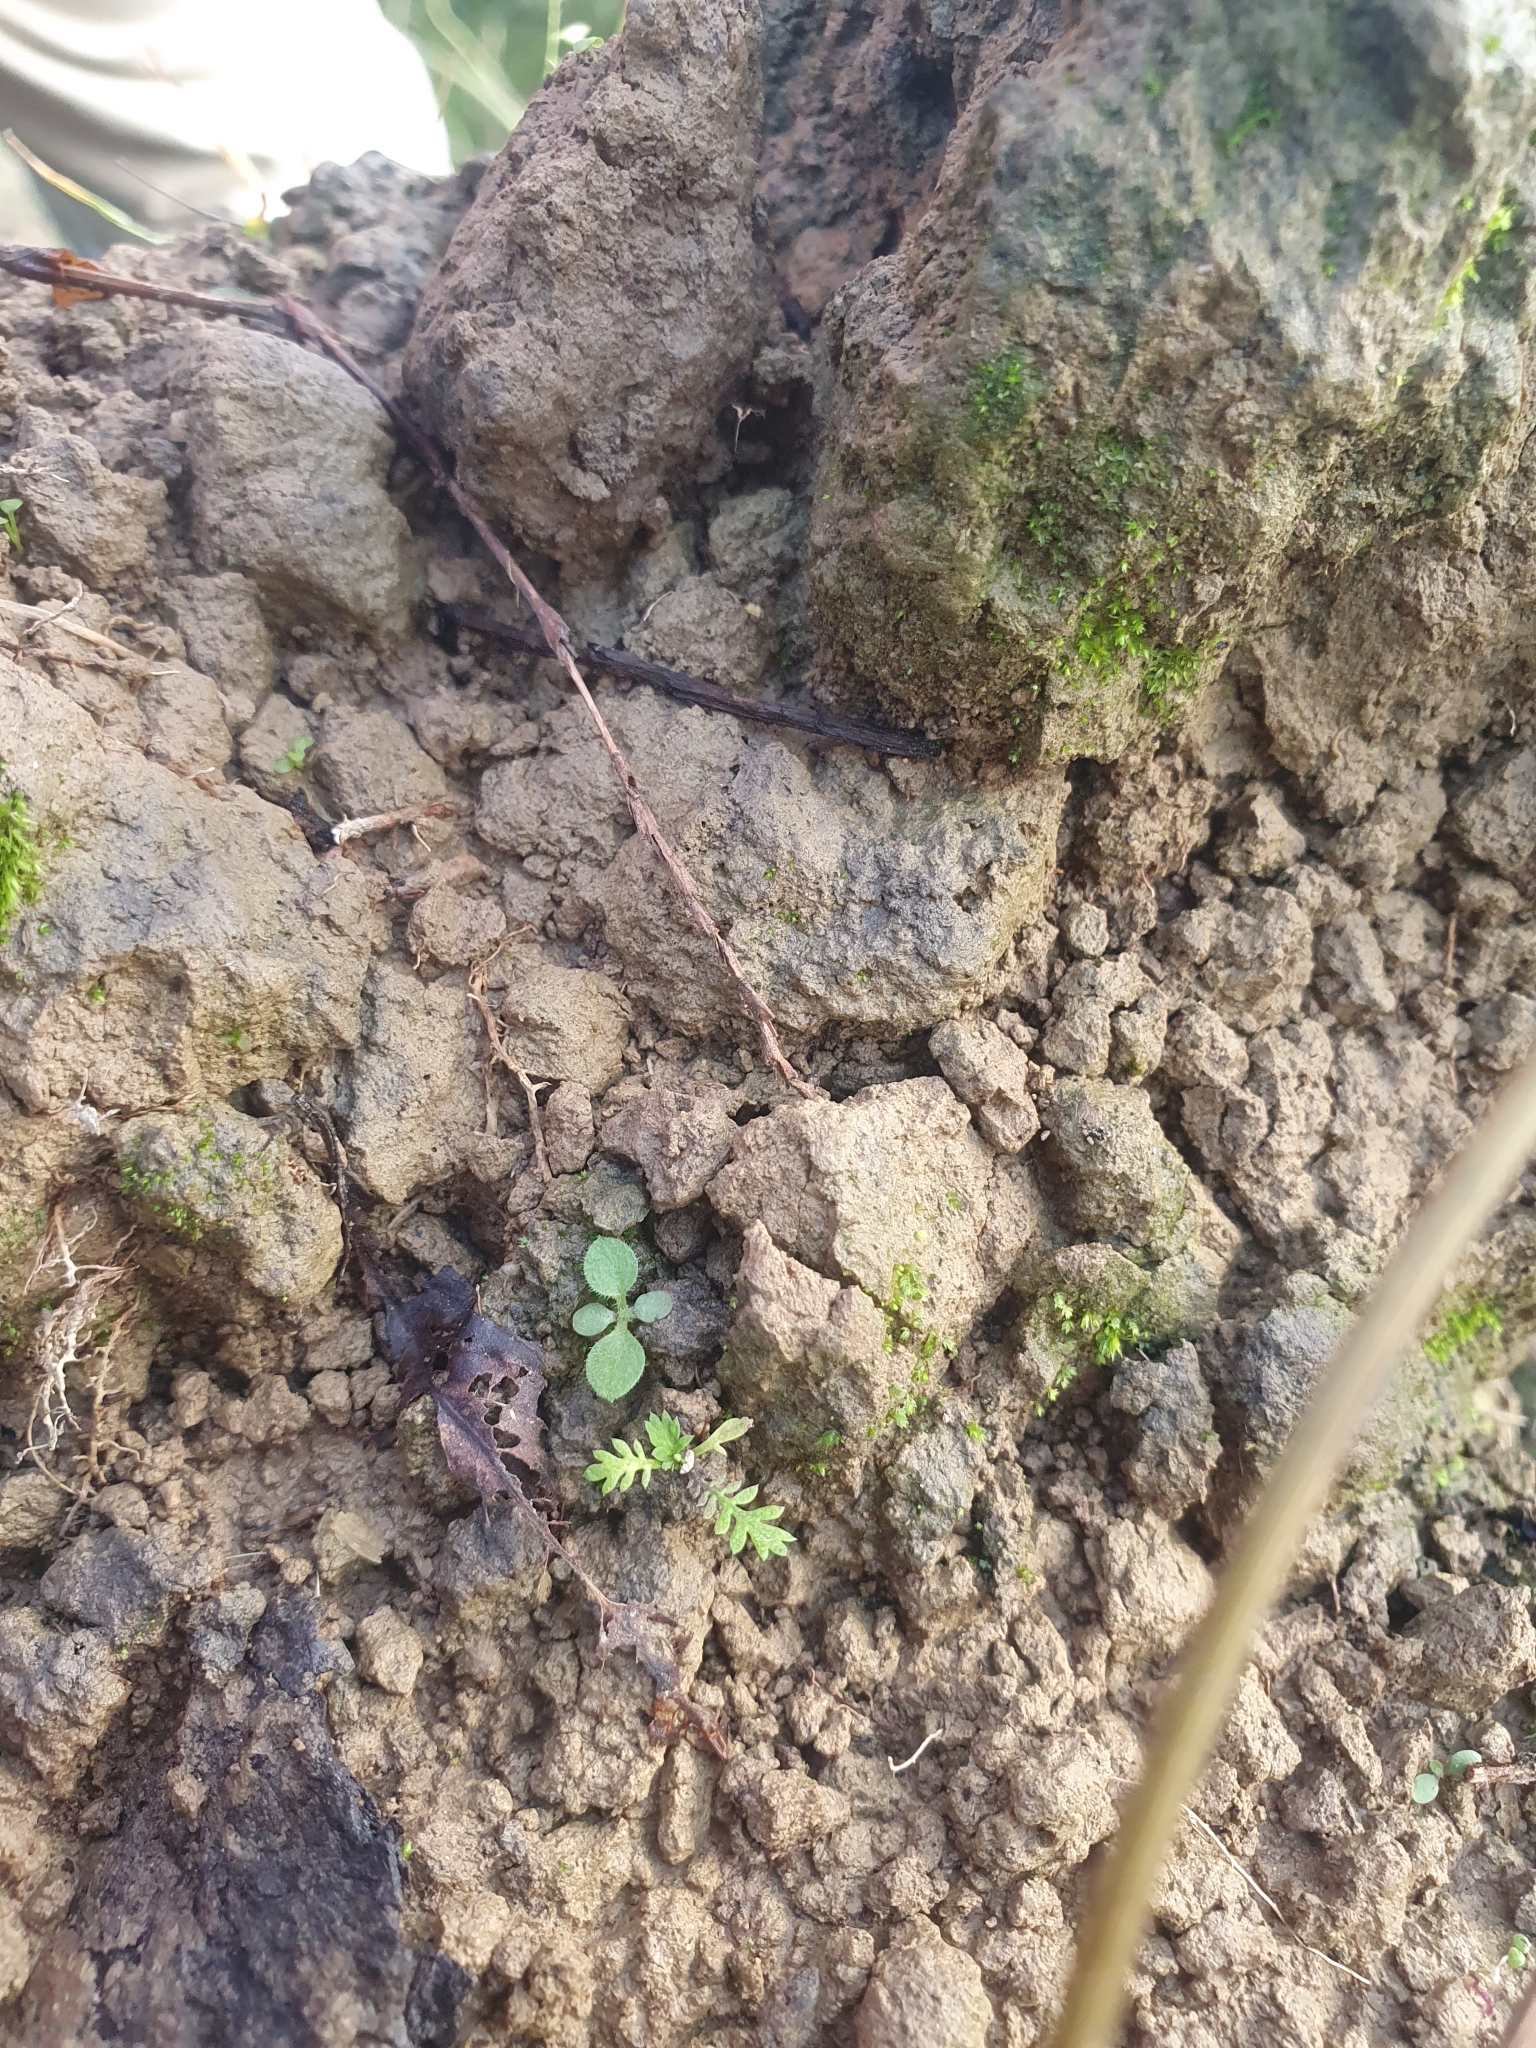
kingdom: Plantae
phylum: Tracheophyta
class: Magnoliopsida
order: Asterales
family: Asteraceae
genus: Leptinella
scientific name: Leptinella nana
